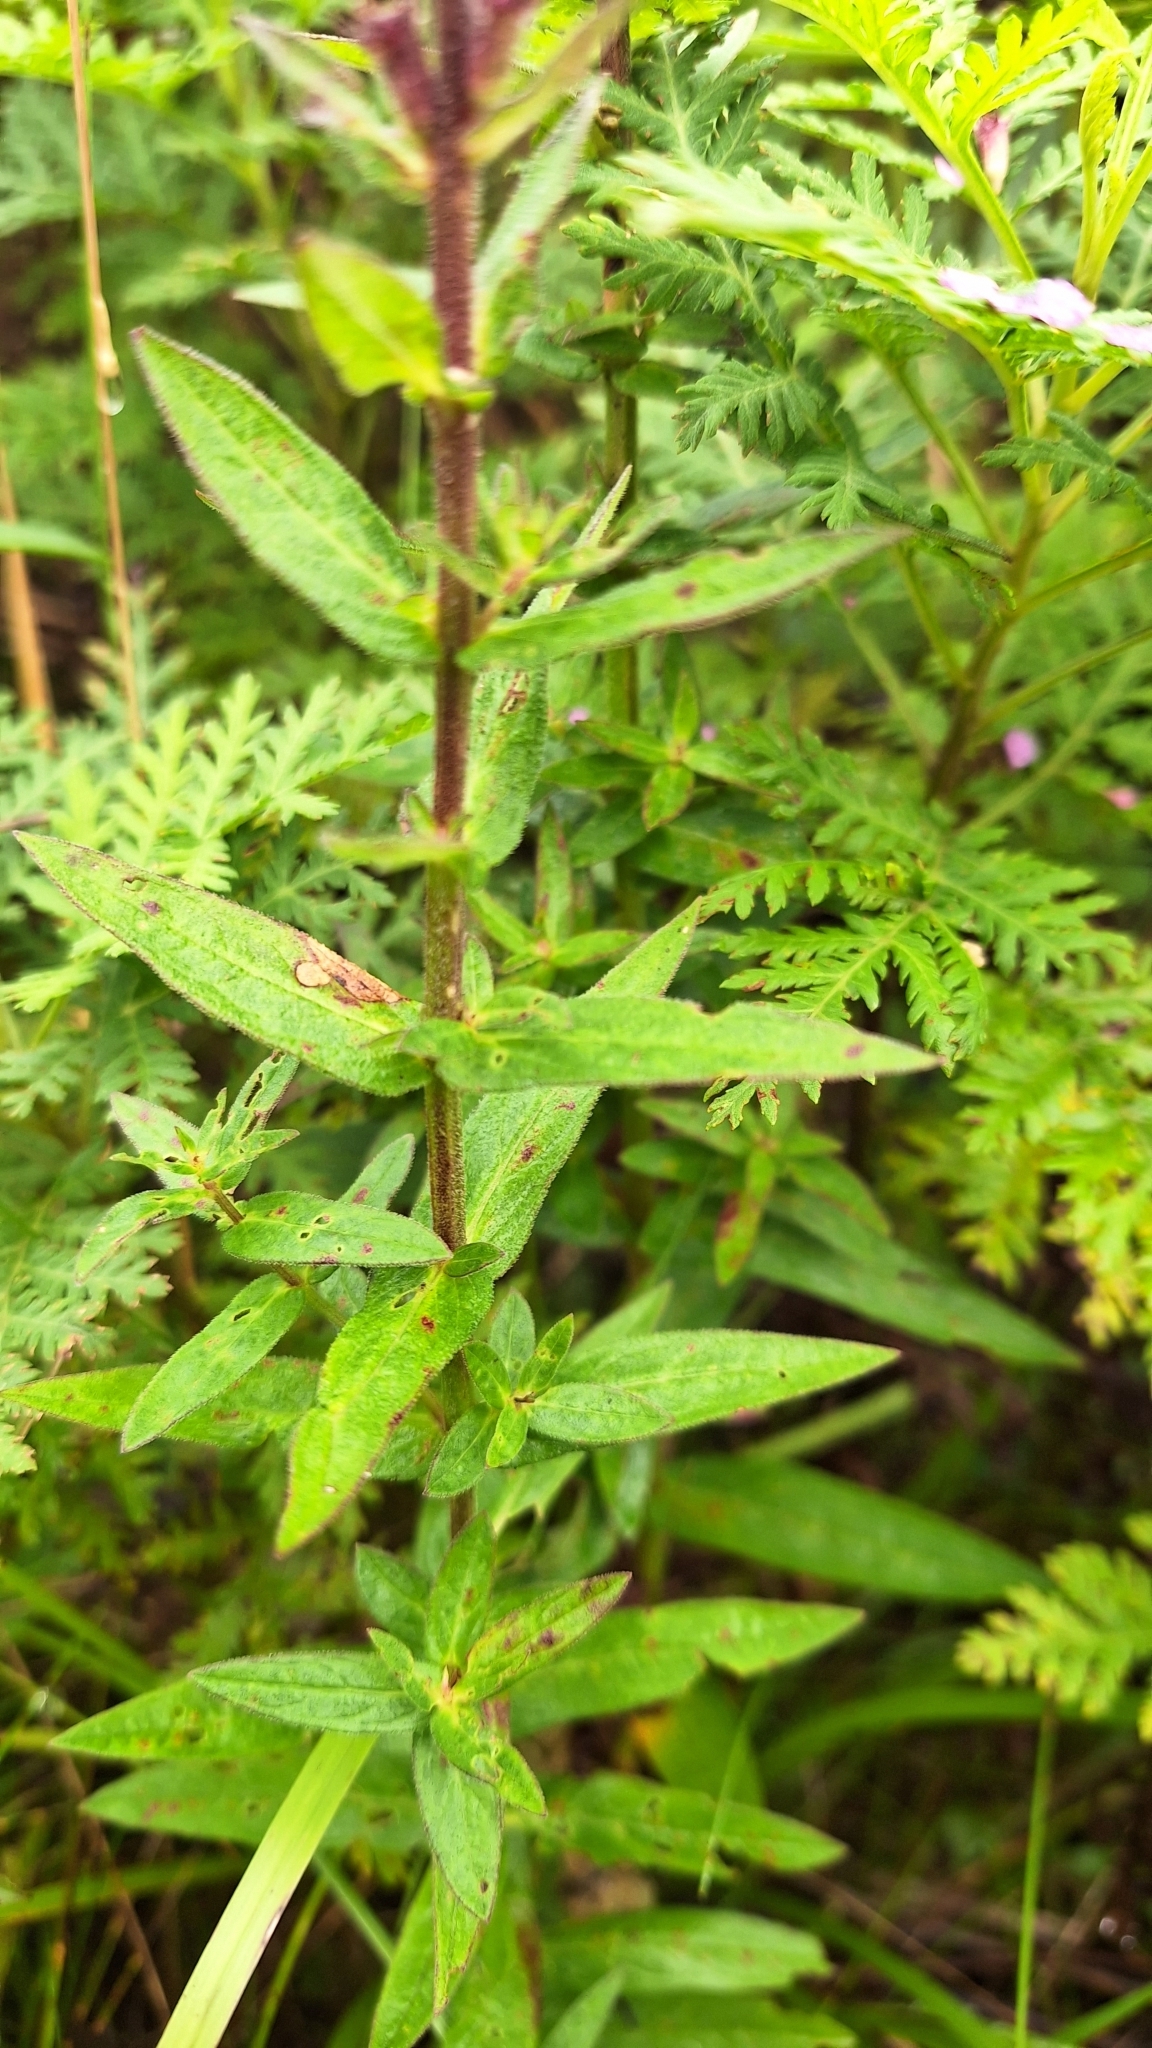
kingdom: Plantae
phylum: Tracheophyta
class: Magnoliopsida
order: Myrtales
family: Lythraceae
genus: Lythrum
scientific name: Lythrum salicaria
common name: Purple loosestrife
